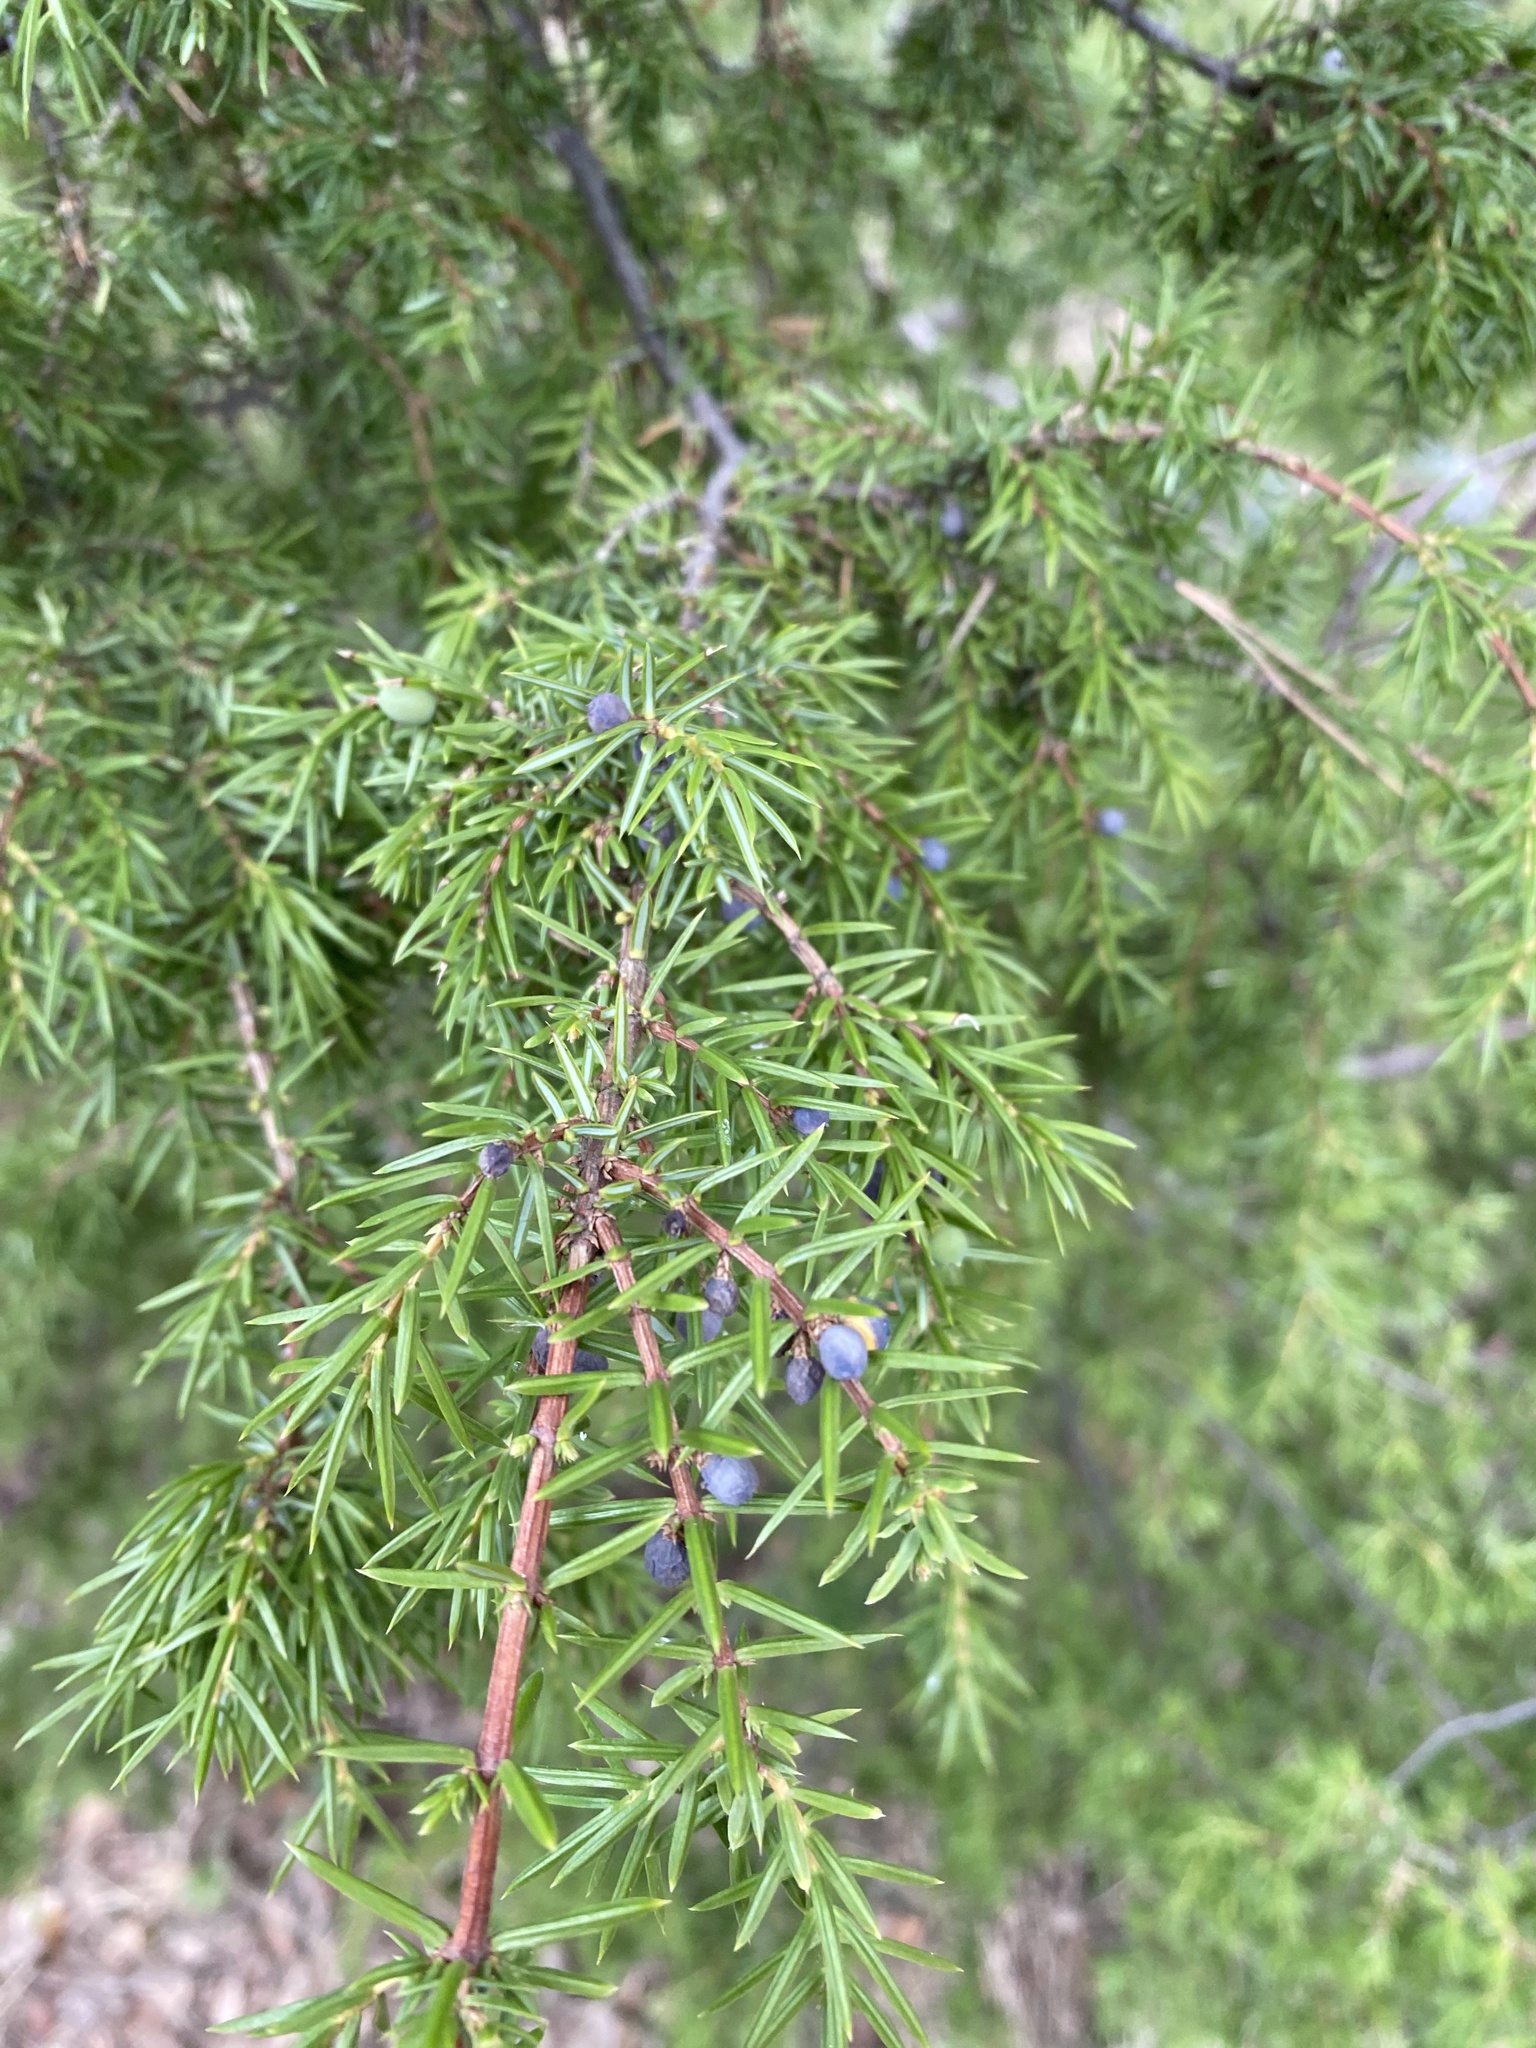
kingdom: Plantae
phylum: Tracheophyta
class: Pinopsida
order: Pinales
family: Cupressaceae
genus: Juniperus
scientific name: Juniperus communis
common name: Common juniper
